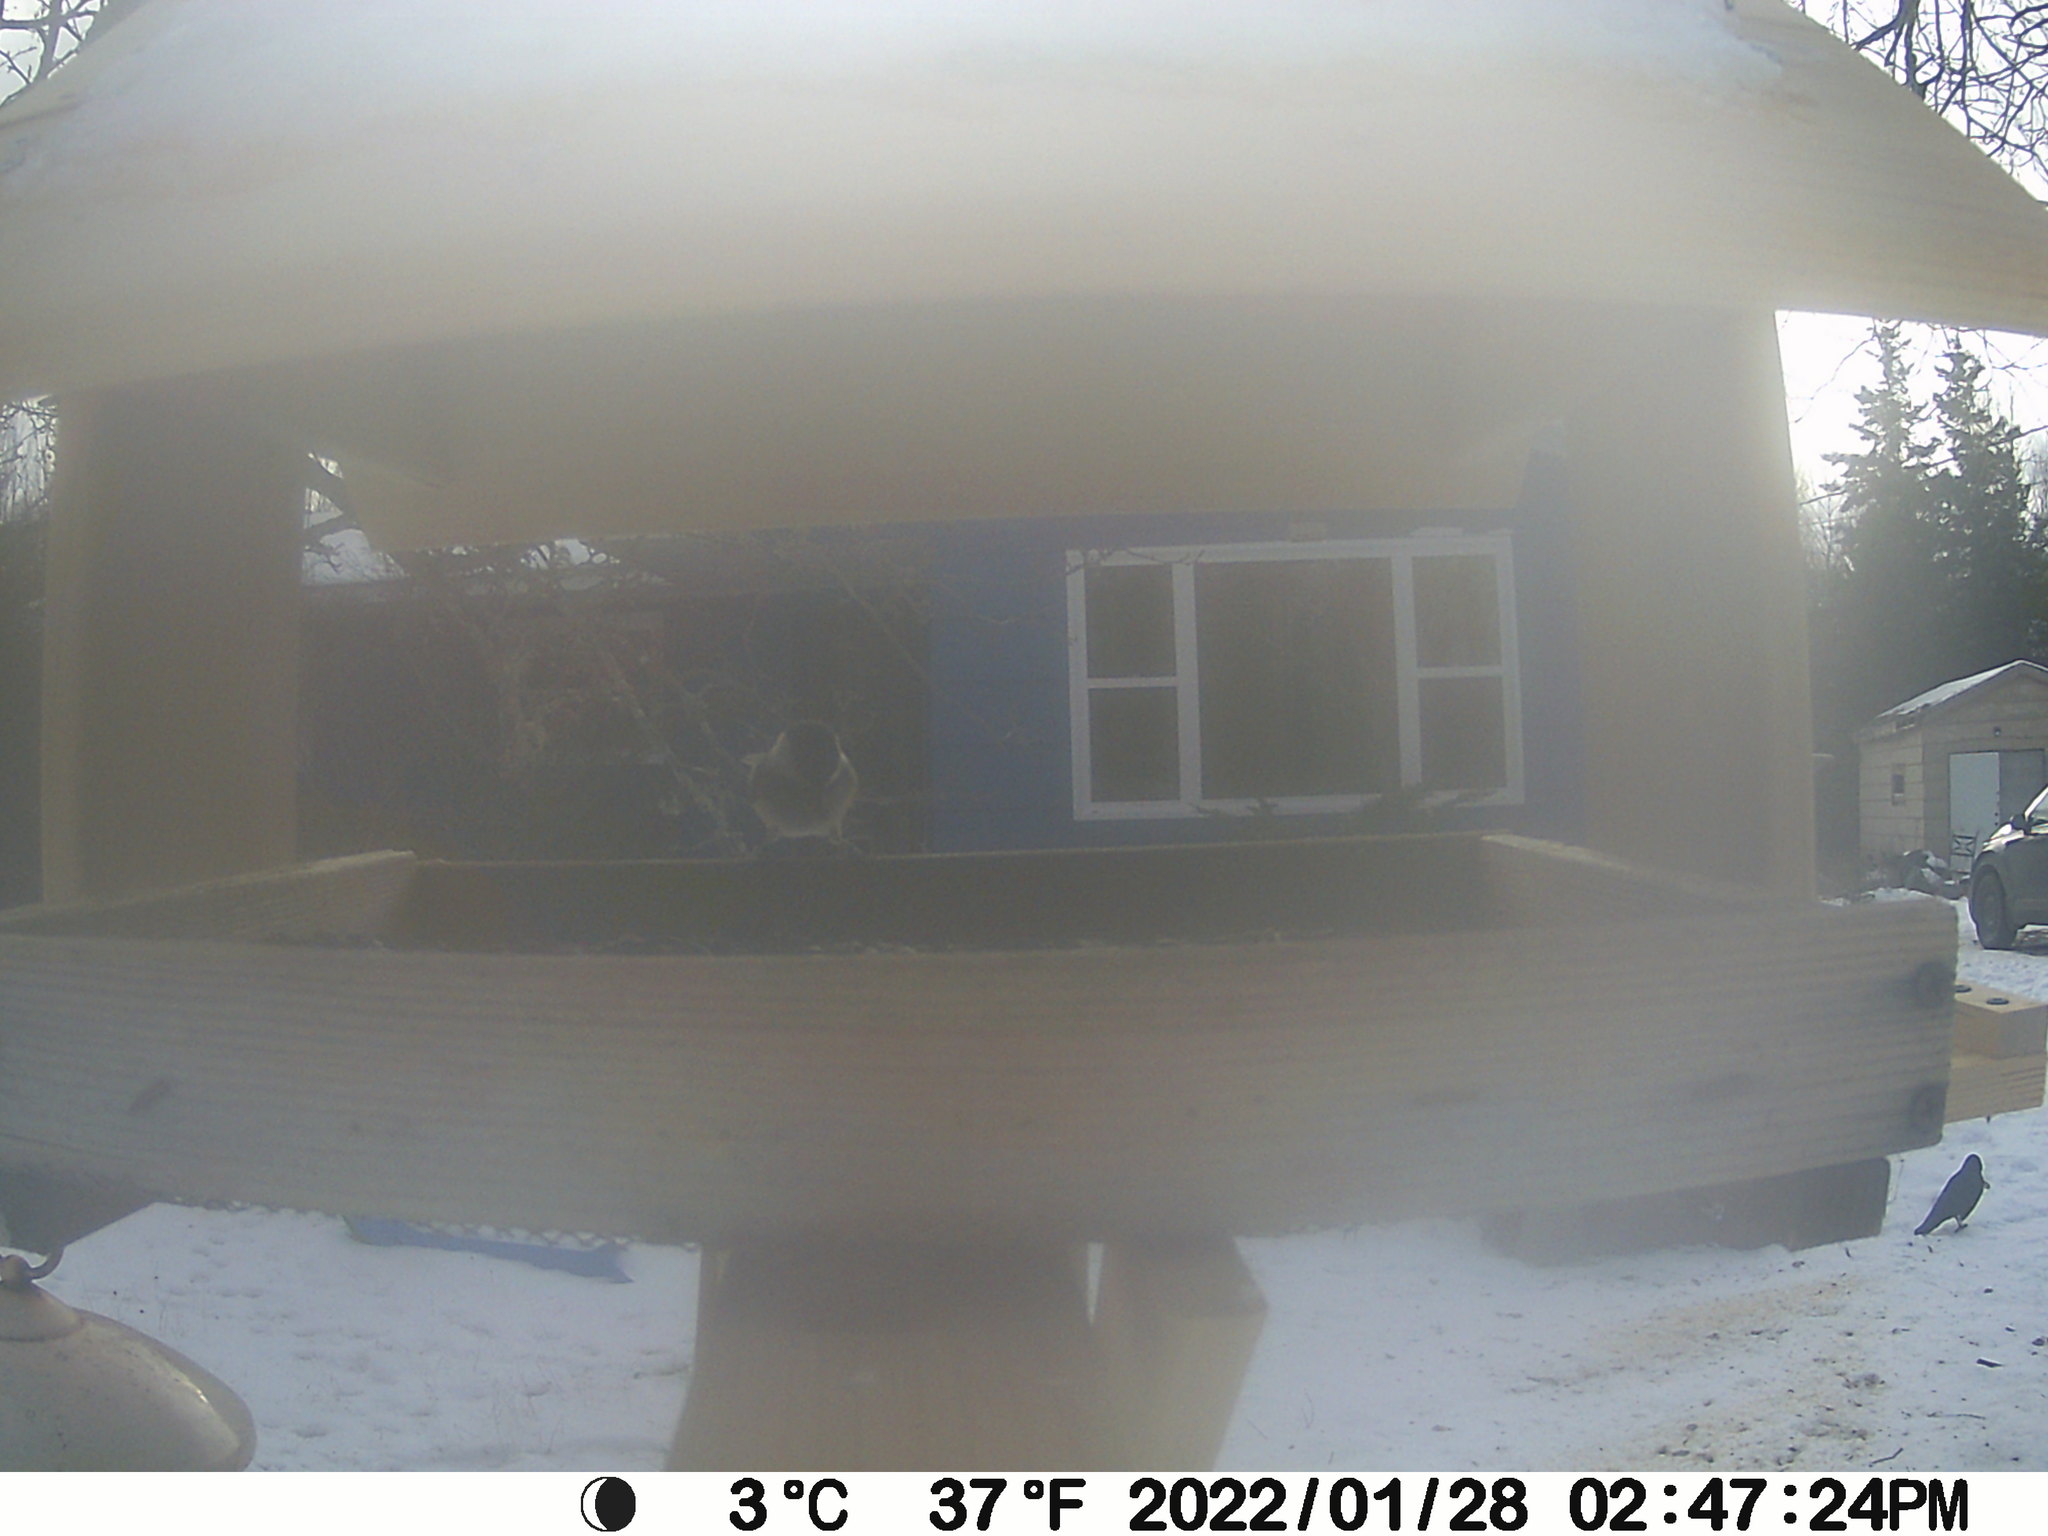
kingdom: Animalia
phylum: Chordata
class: Aves
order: Passeriformes
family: Corvidae
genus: Corvus
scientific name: Corvus brachyrhynchos
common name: American crow
